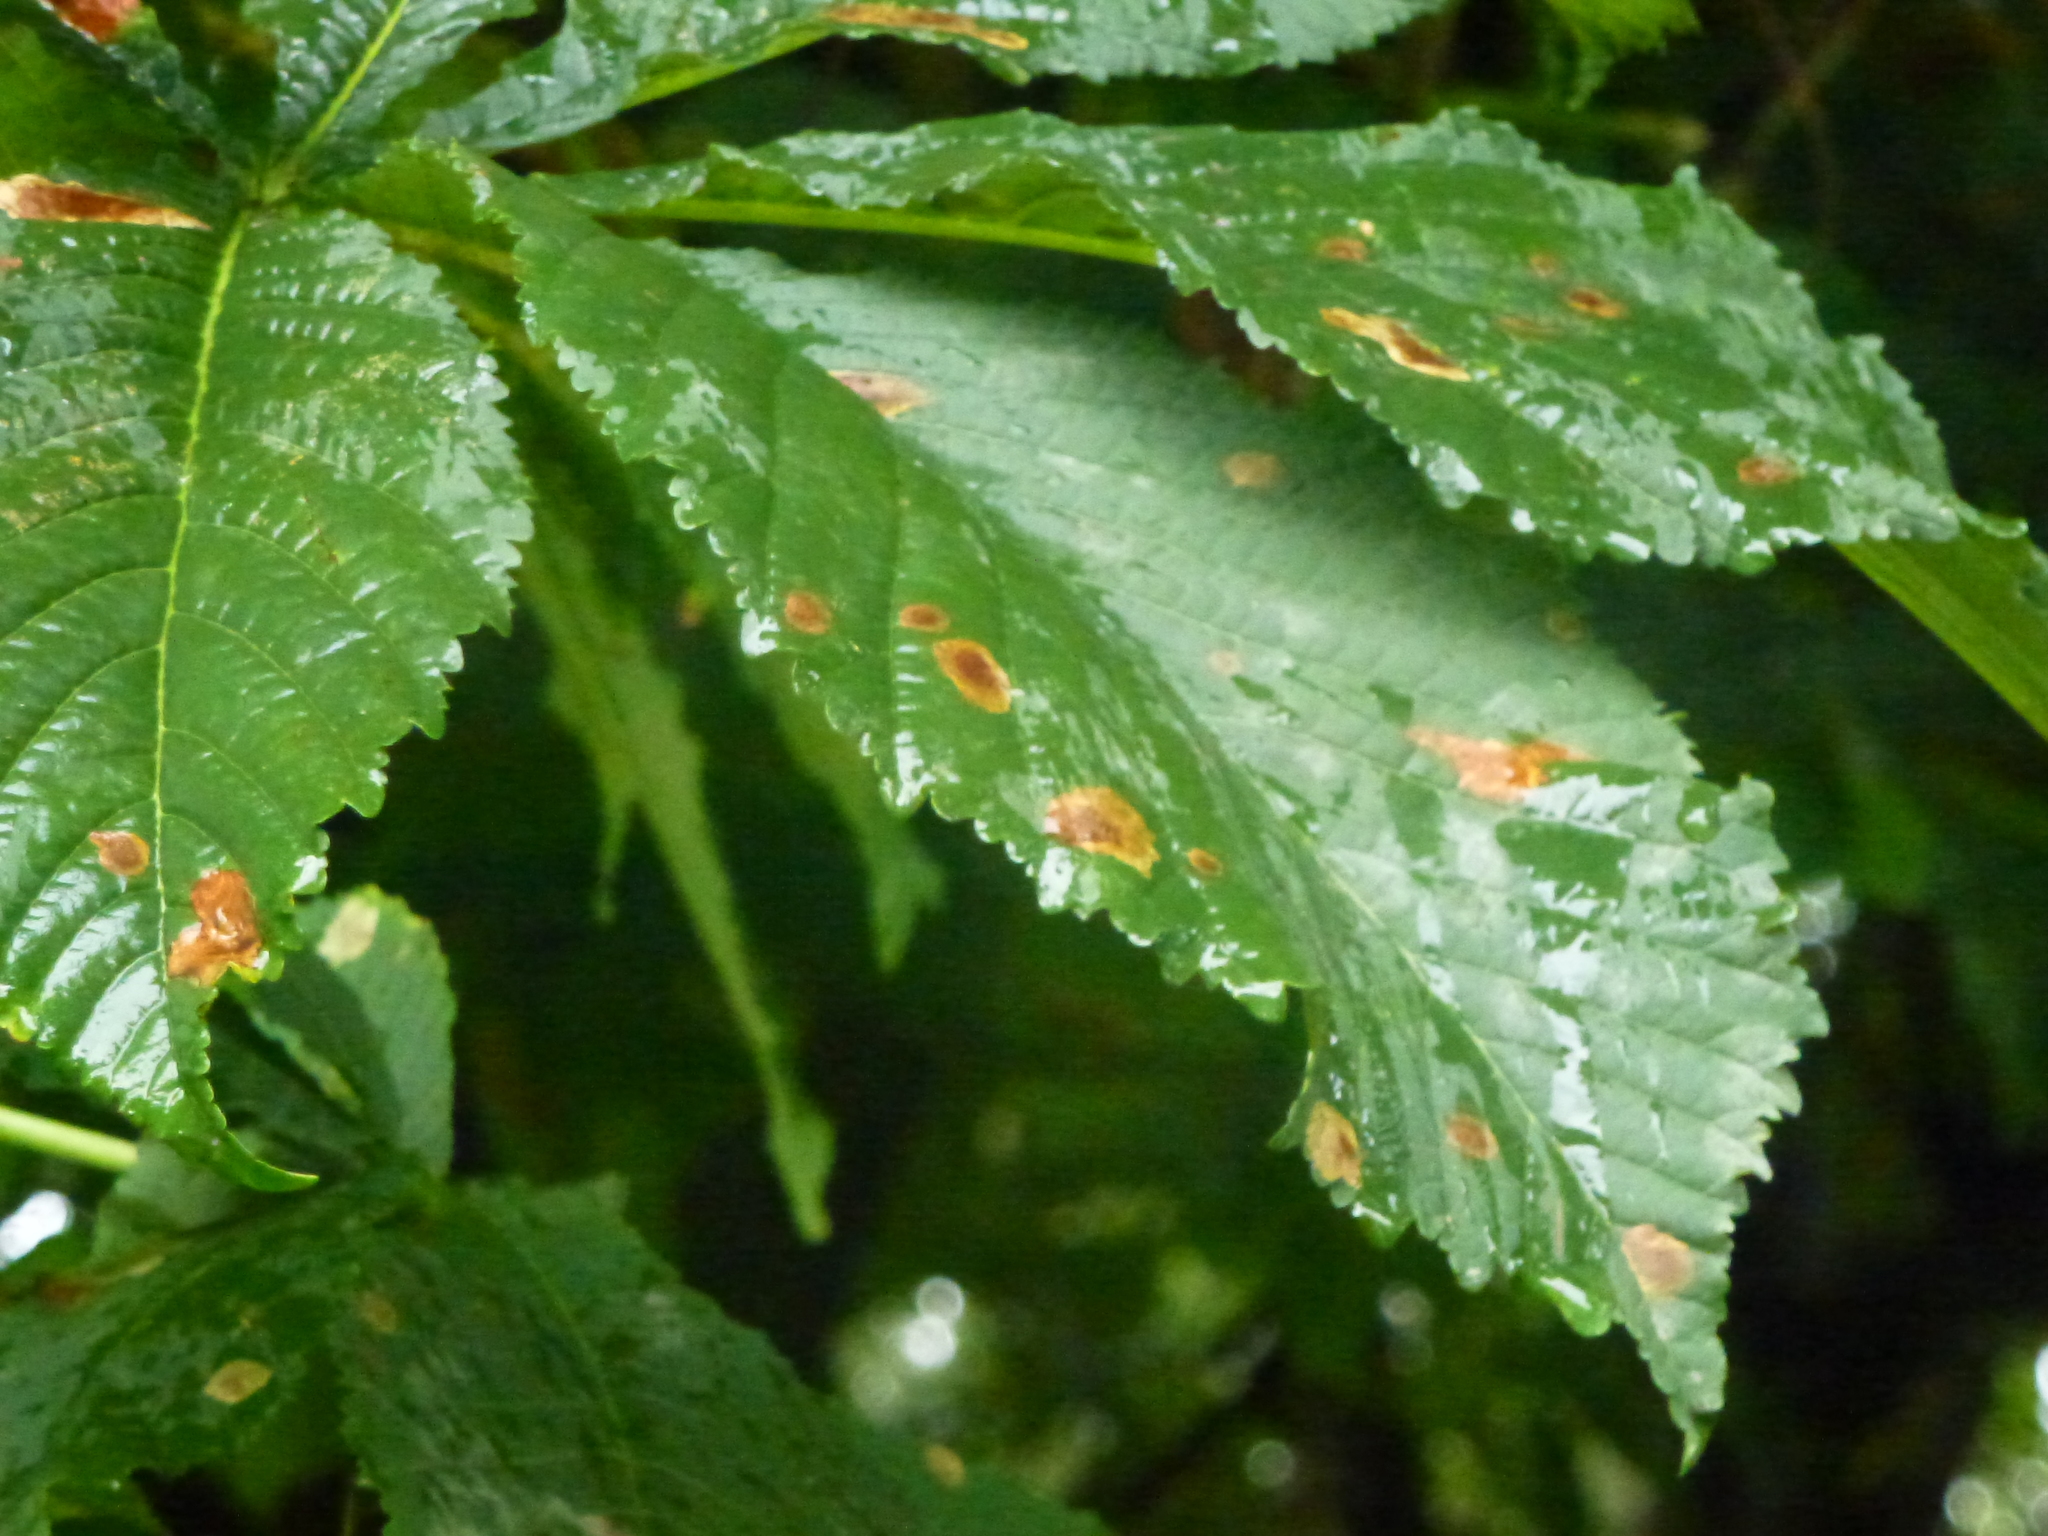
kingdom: Plantae
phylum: Tracheophyta
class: Magnoliopsida
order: Sapindales
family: Sapindaceae
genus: Aesculus
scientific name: Aesculus hippocastanum
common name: Horse-chestnut
